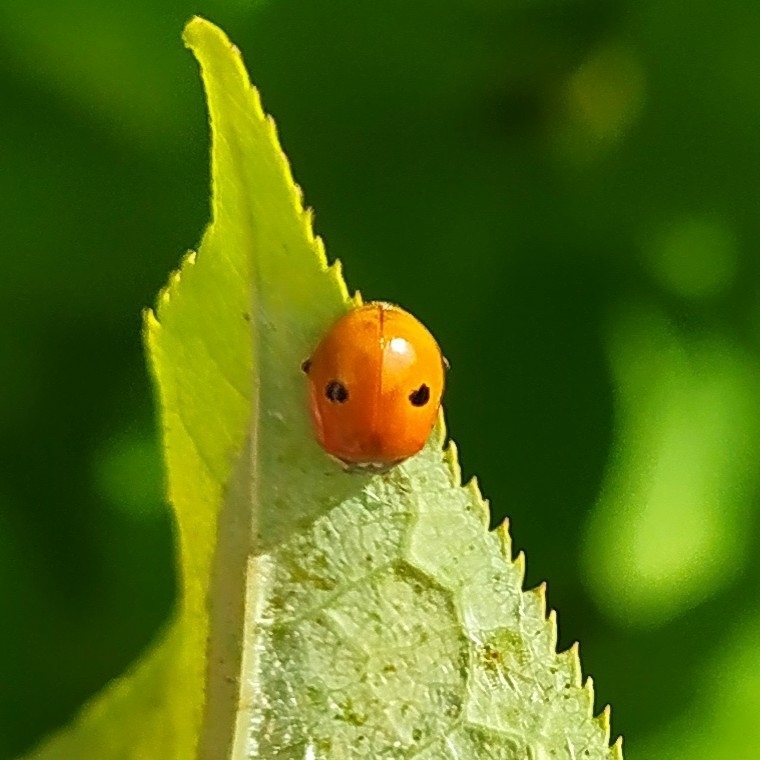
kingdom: Animalia
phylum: Arthropoda
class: Insecta
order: Coleoptera
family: Coccinellidae
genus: Adalia
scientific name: Adalia bipunctata
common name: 2-spot ladybird
